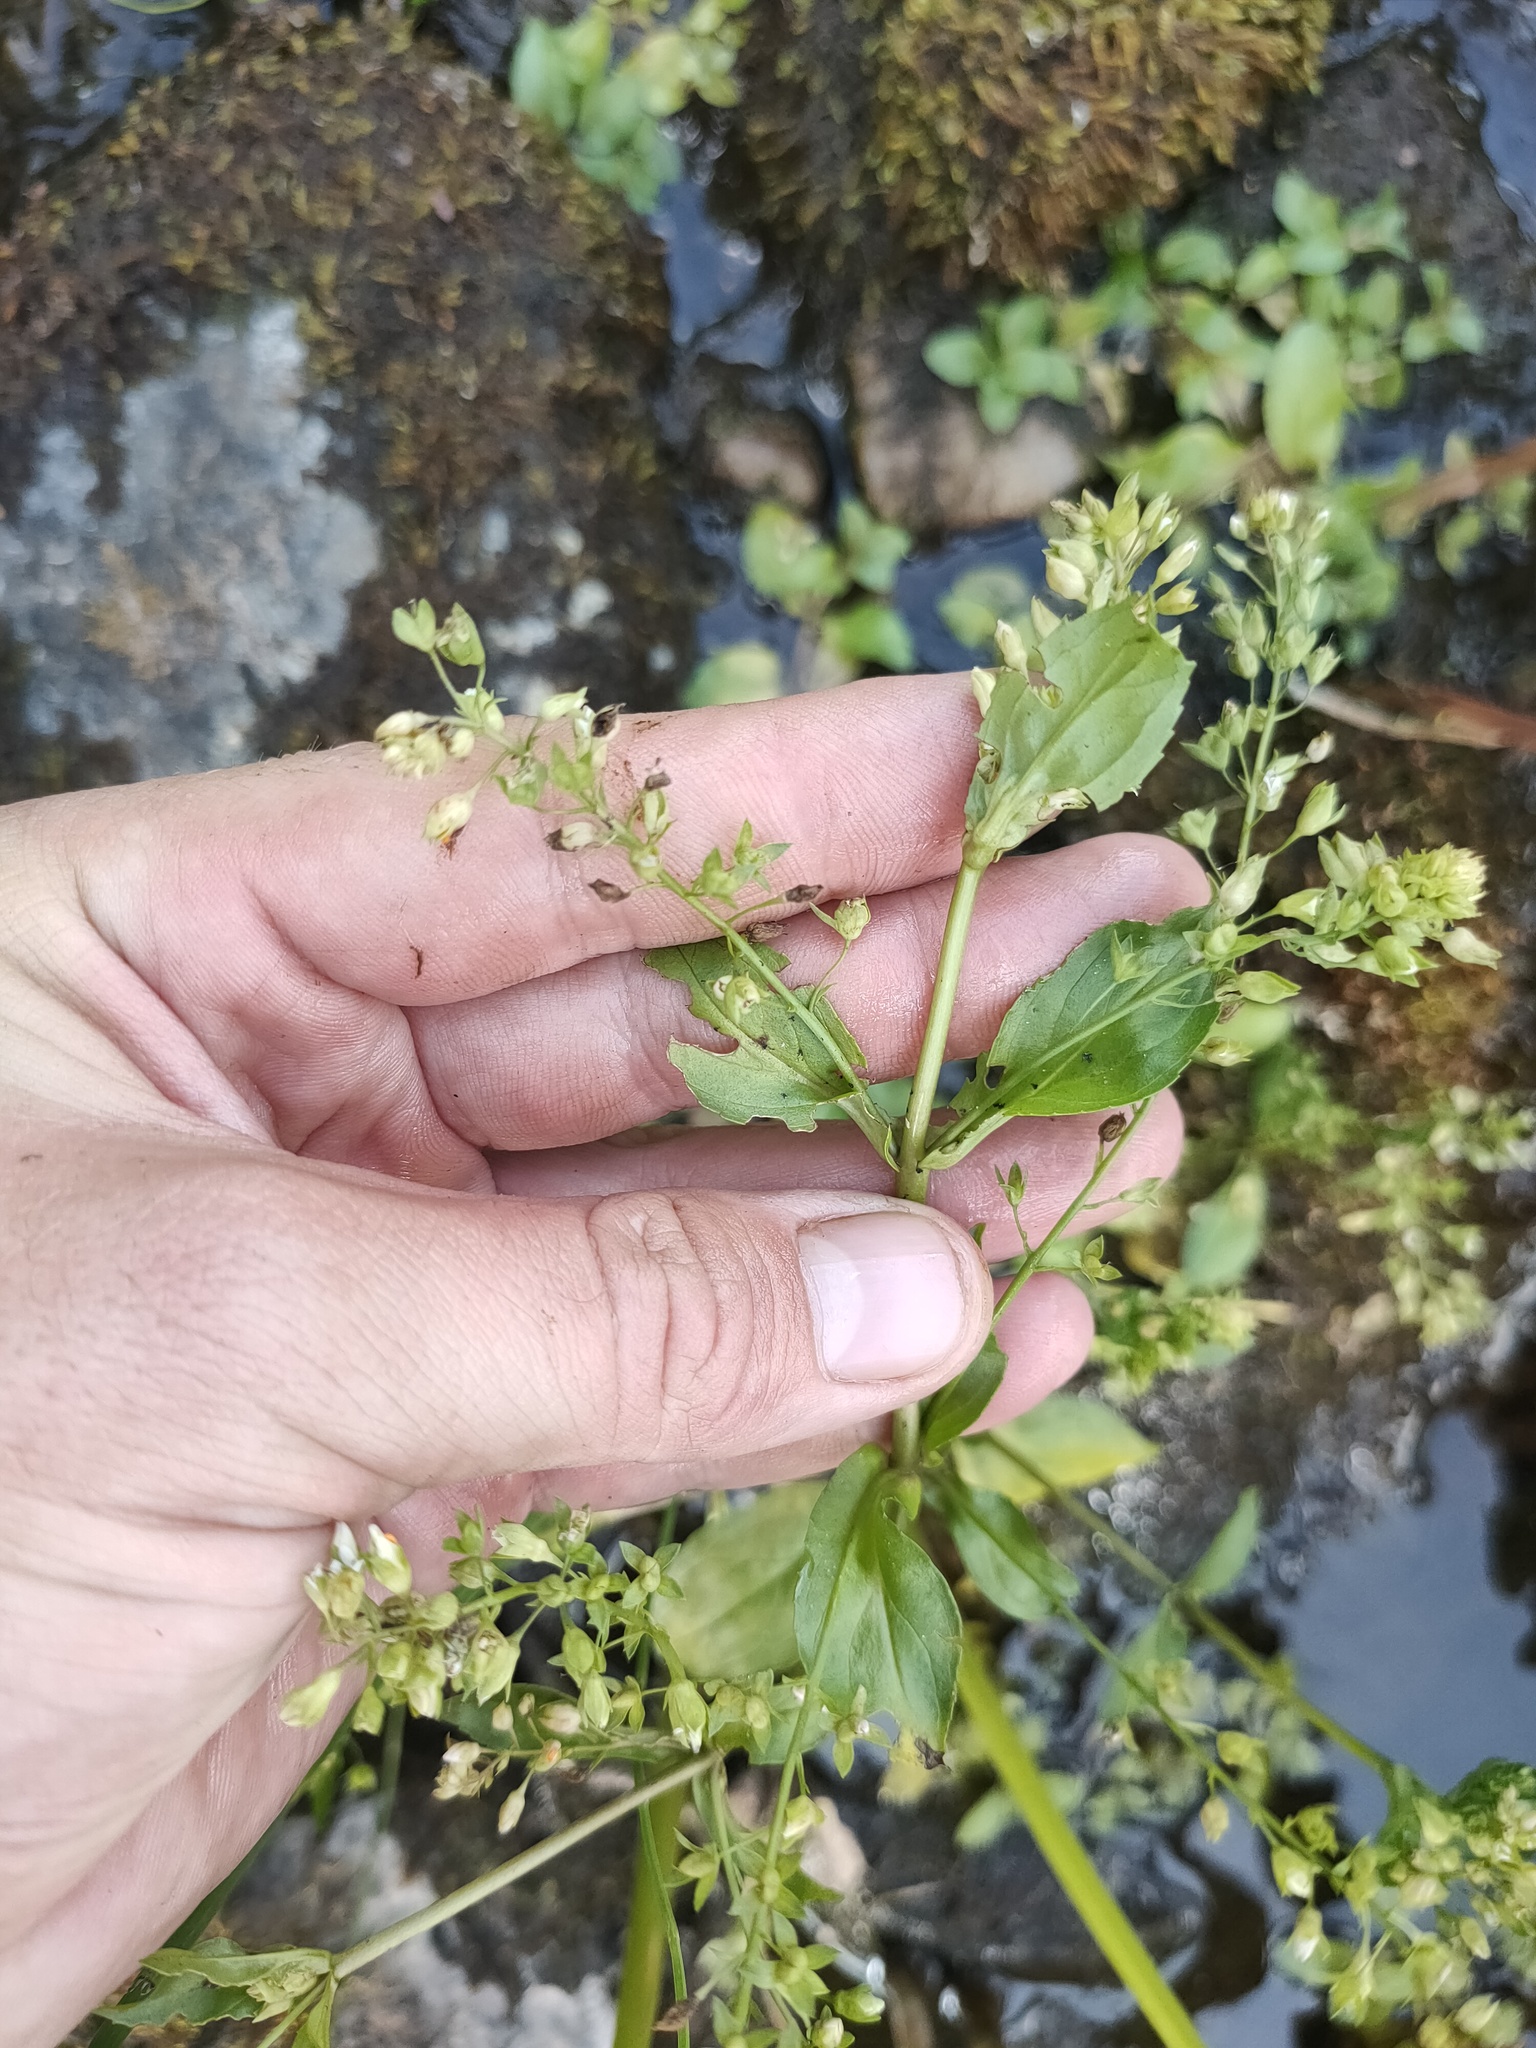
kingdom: Plantae
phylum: Tracheophyta
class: Magnoliopsida
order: Lamiales
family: Plantaginaceae
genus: Veronica
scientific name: Veronica anagallis-aquatica
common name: Water speedwell
